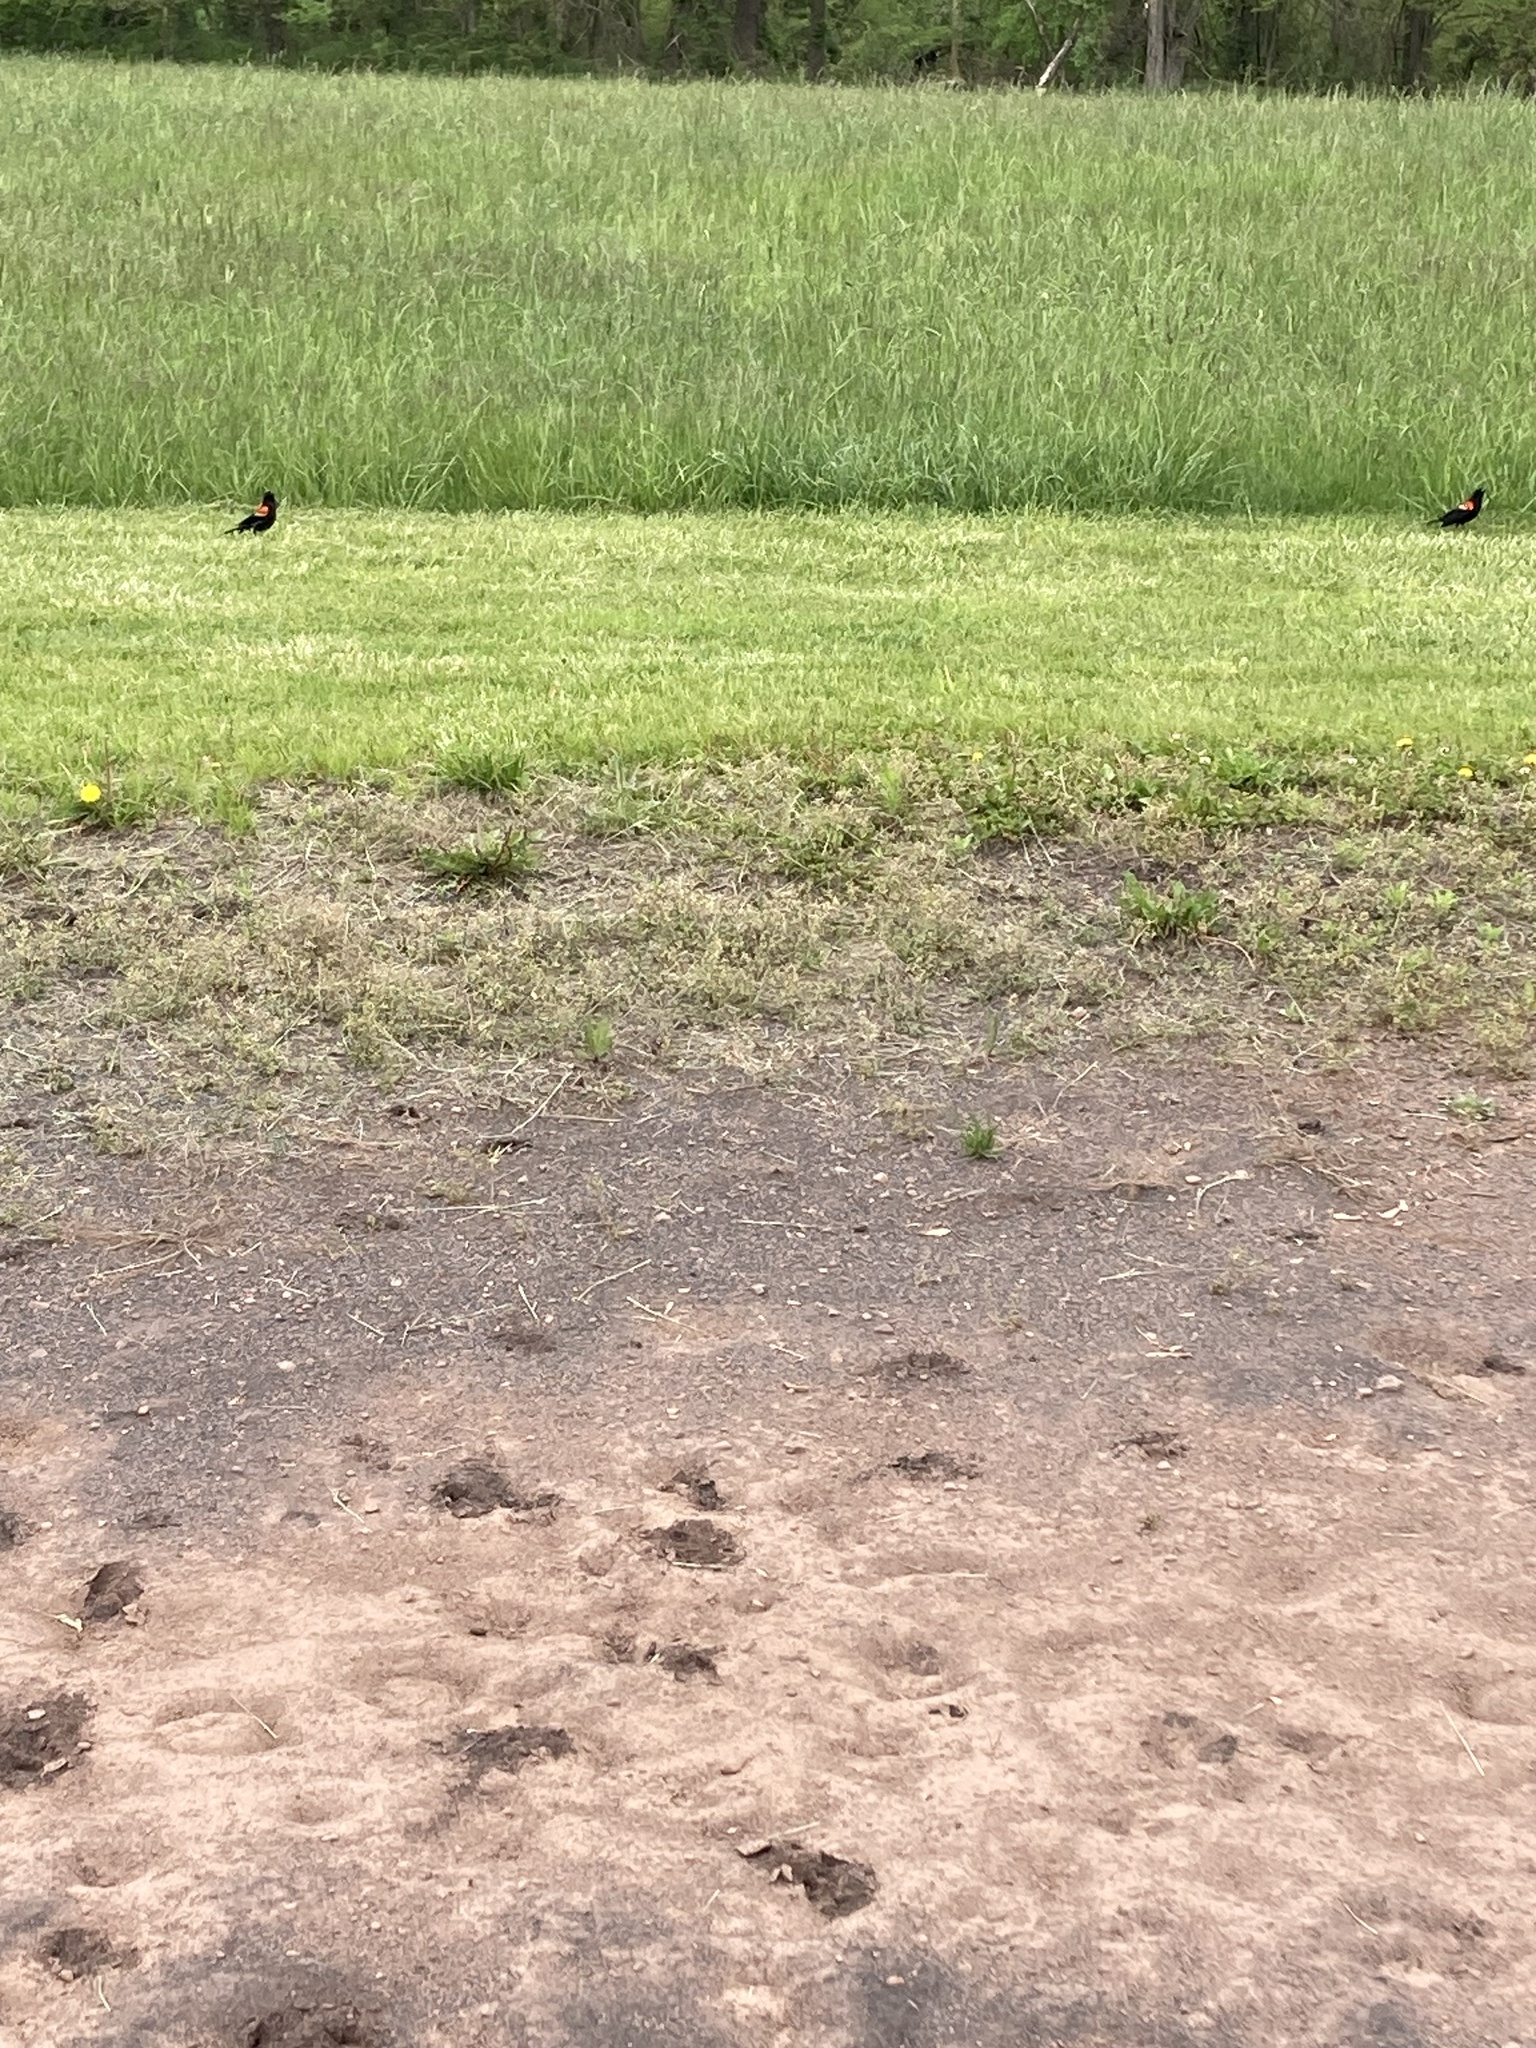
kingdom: Animalia
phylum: Chordata
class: Aves
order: Passeriformes
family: Icteridae
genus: Agelaius
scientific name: Agelaius phoeniceus
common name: Red-winged blackbird
